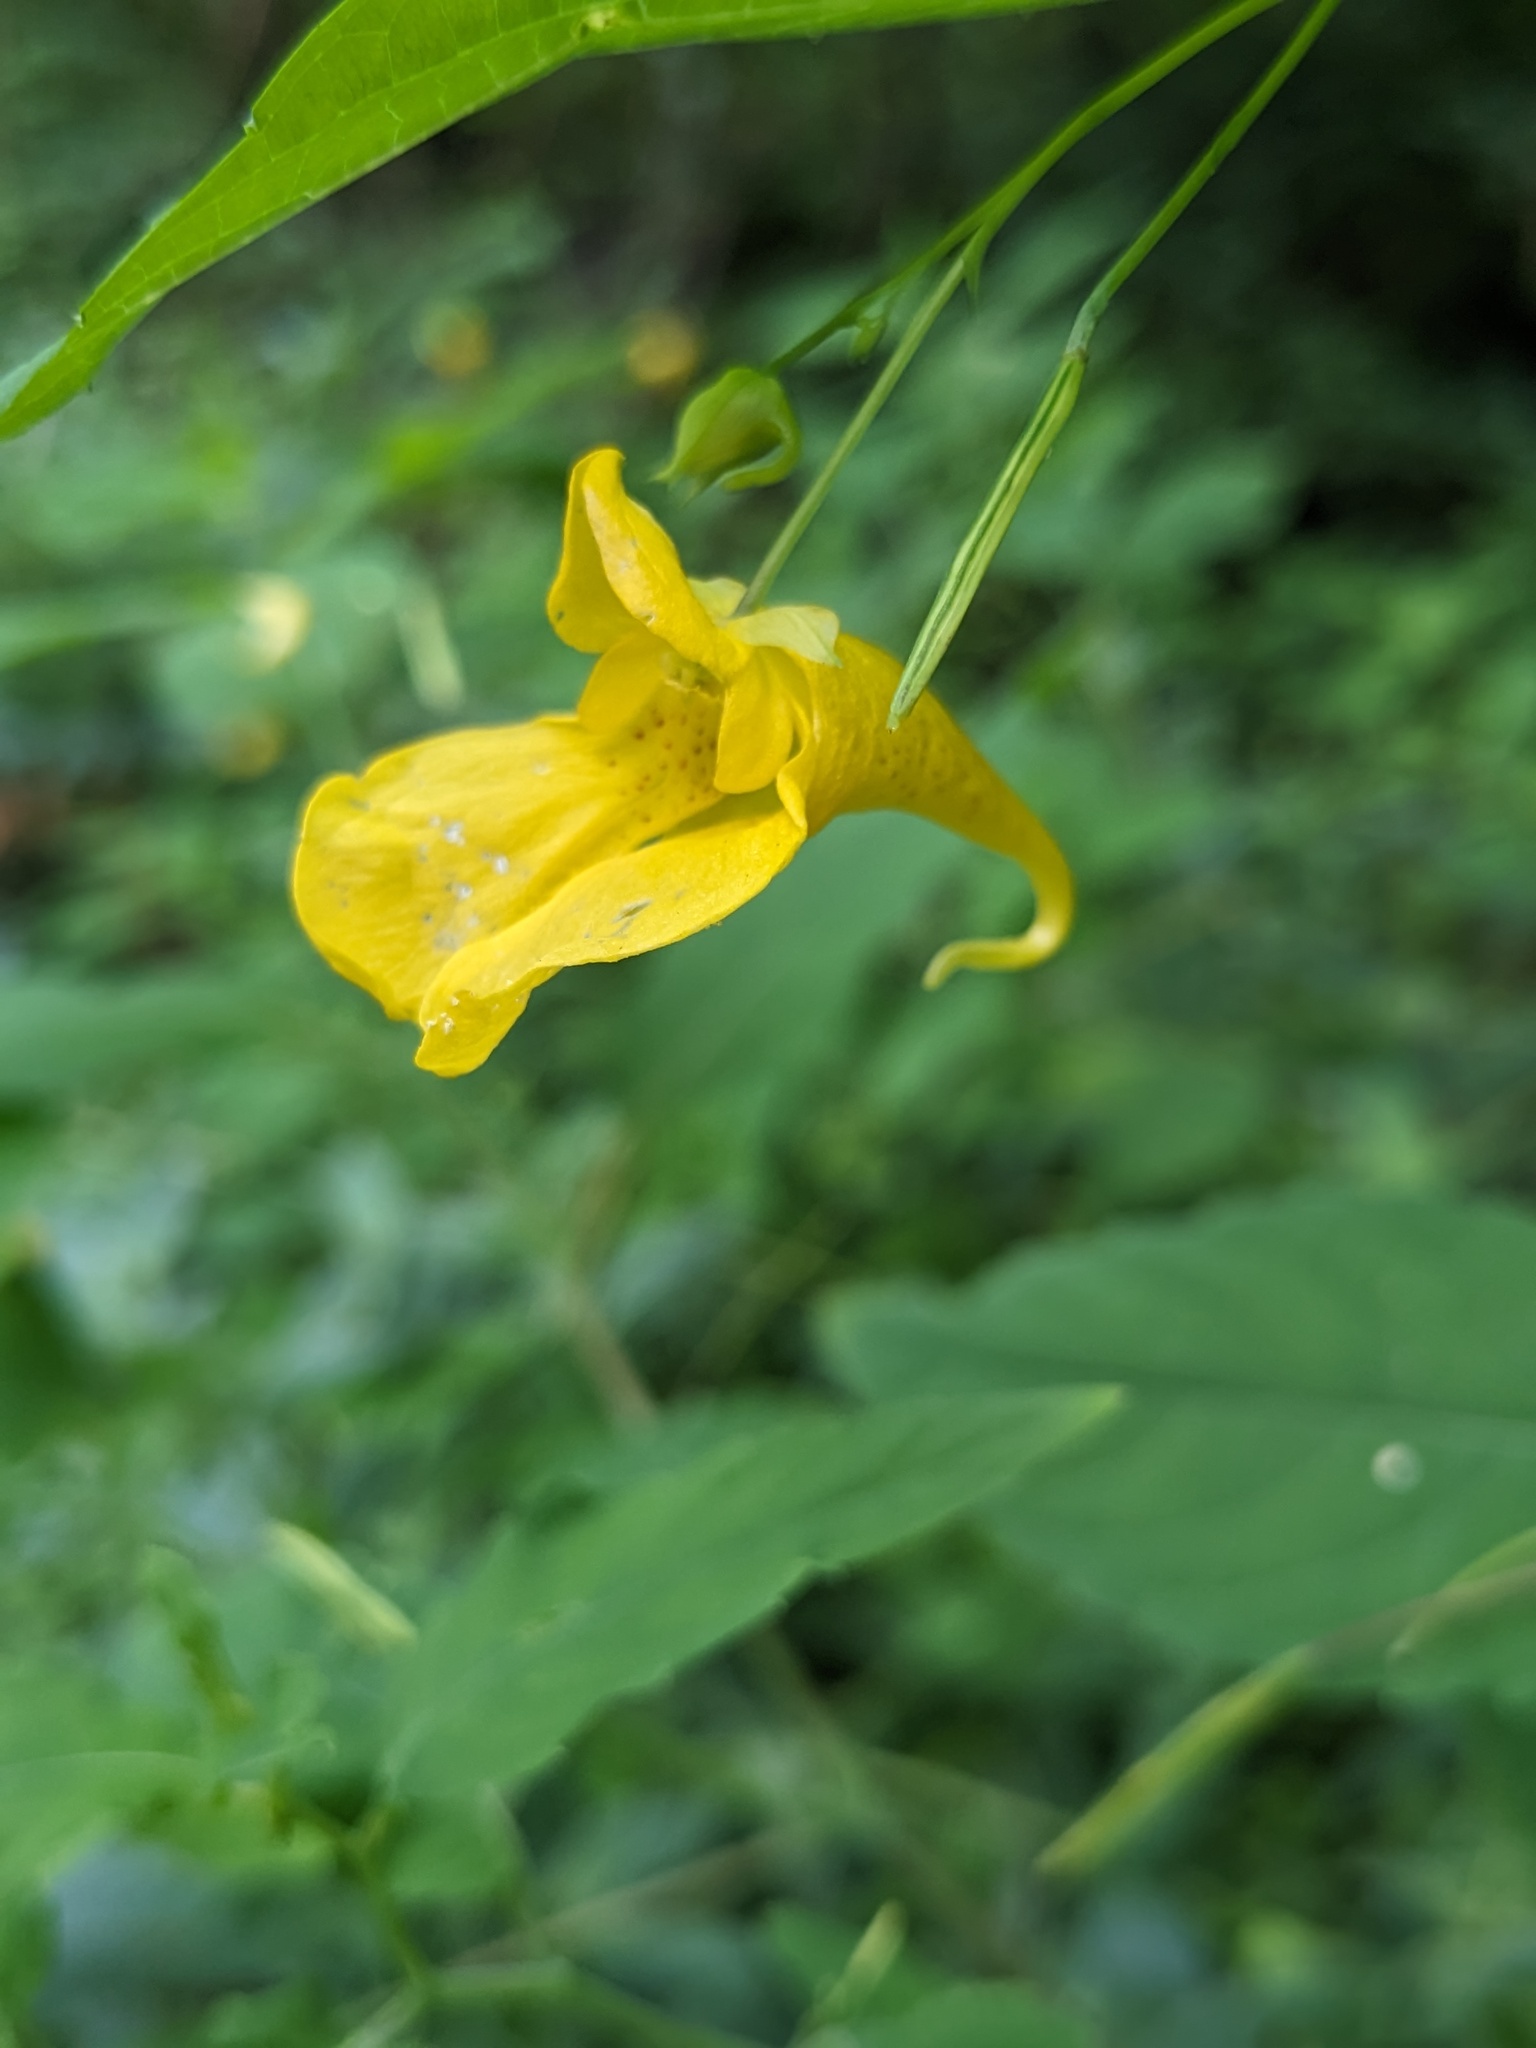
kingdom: Plantae
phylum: Tracheophyta
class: Magnoliopsida
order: Ericales
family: Balsaminaceae
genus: Impatiens
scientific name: Impatiens noli-tangere
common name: Touch-me-not balsam
